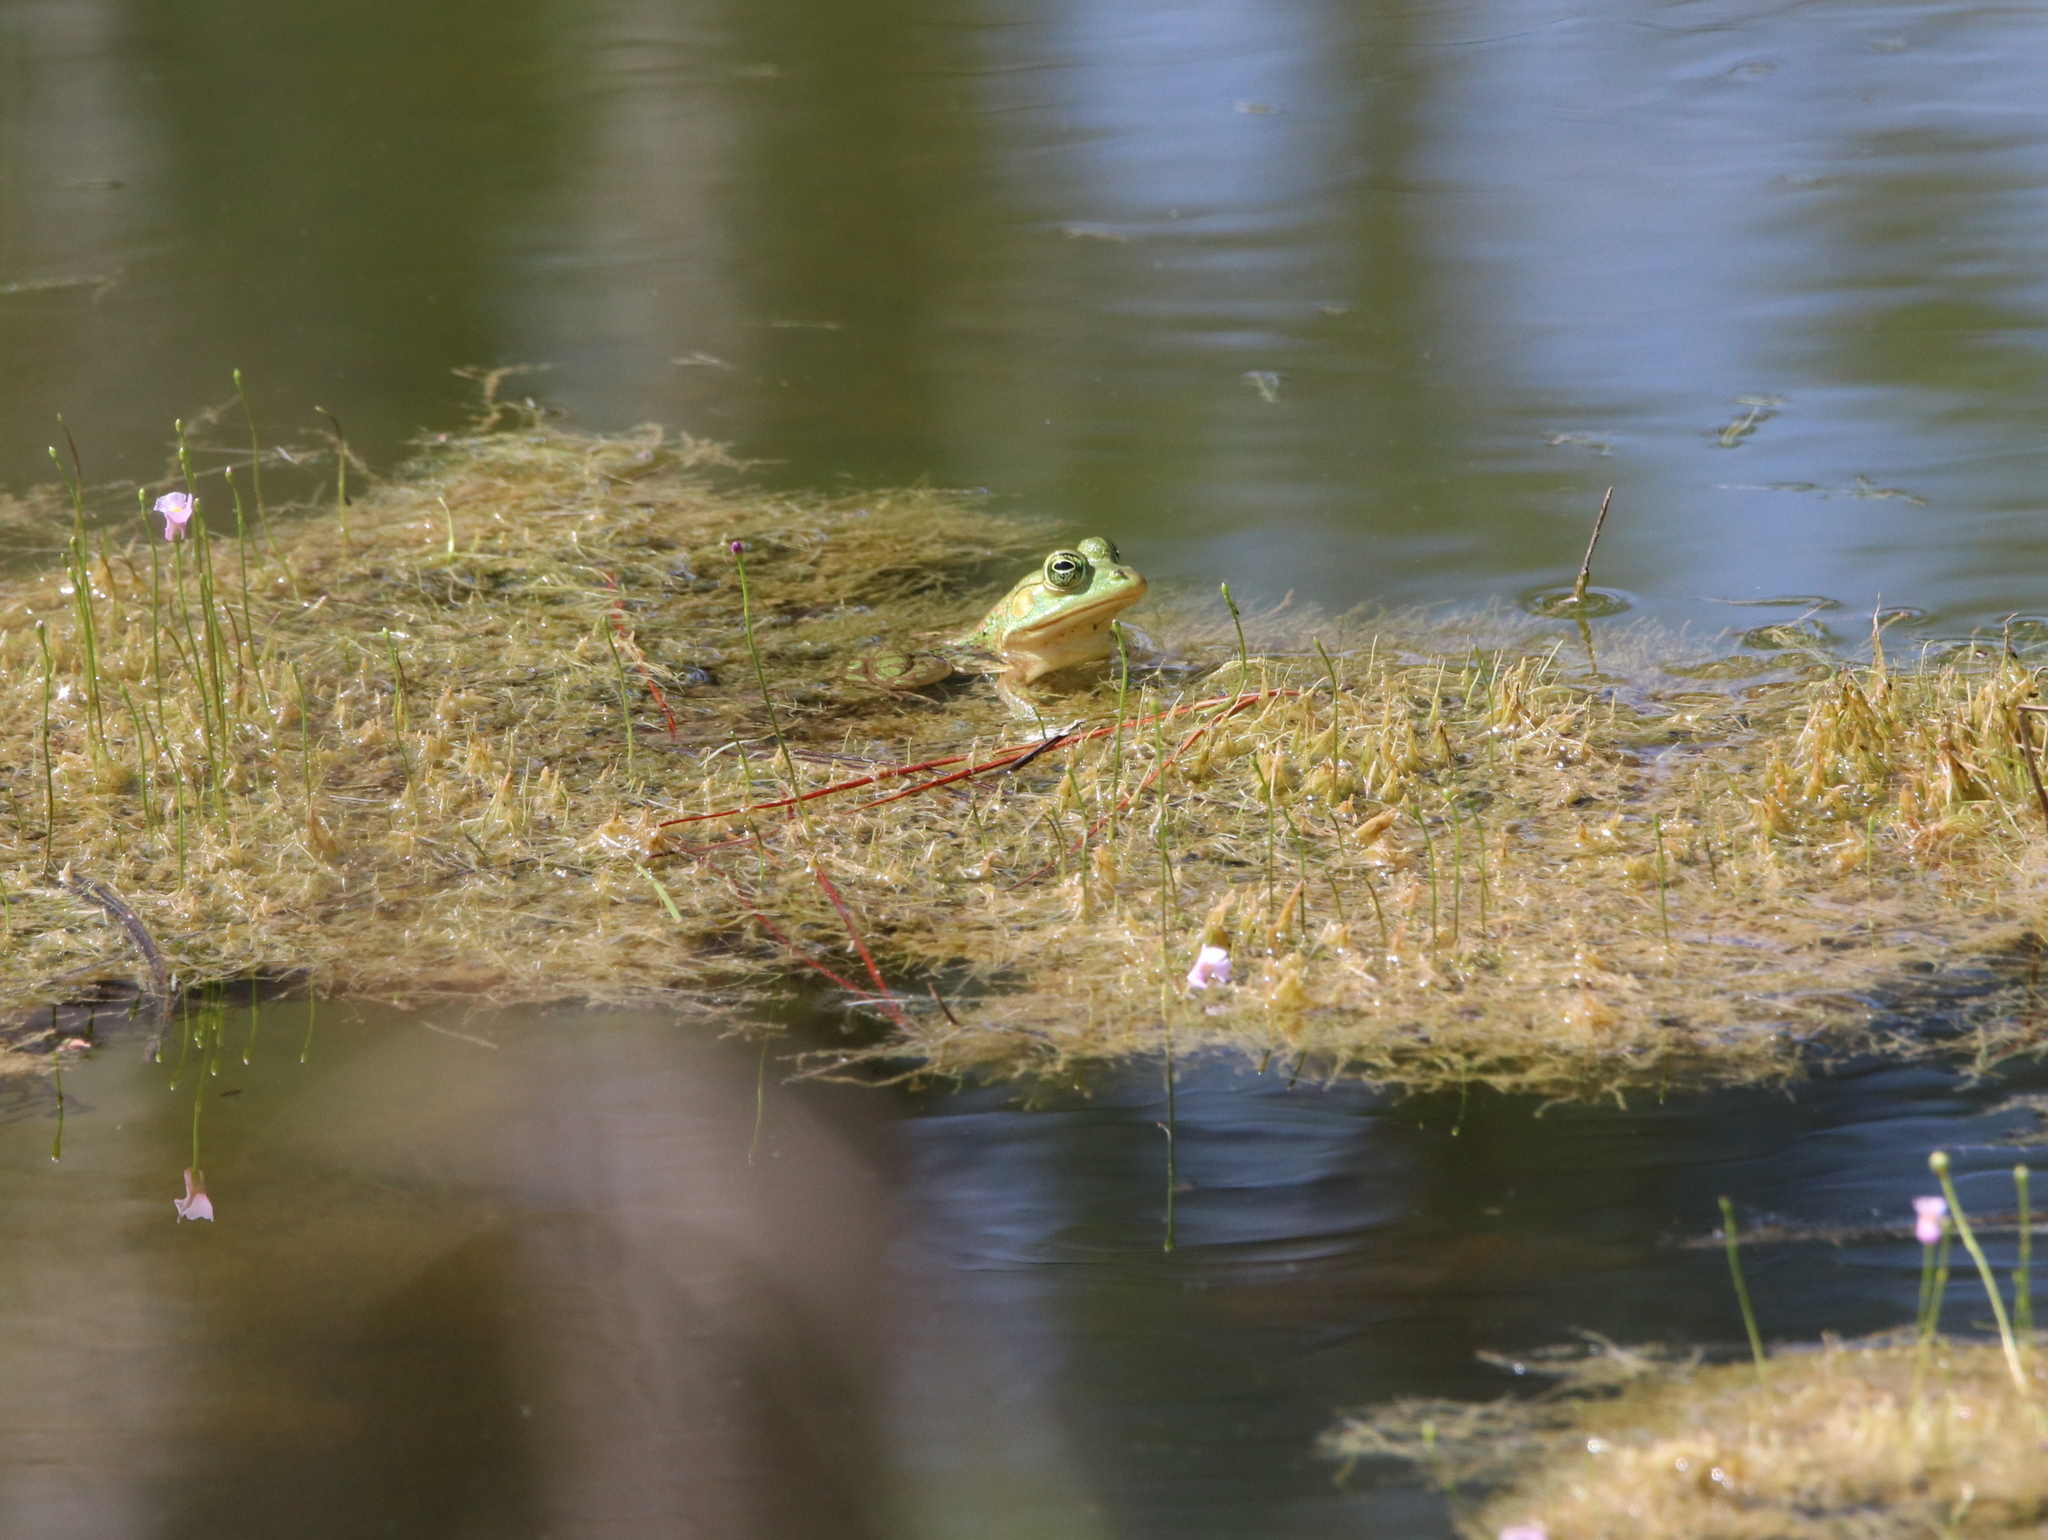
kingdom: Animalia
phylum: Chordata
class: Amphibia
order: Anura
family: Ranidae
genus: Lithobates
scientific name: Lithobates catesbeianus
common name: American bullfrog
